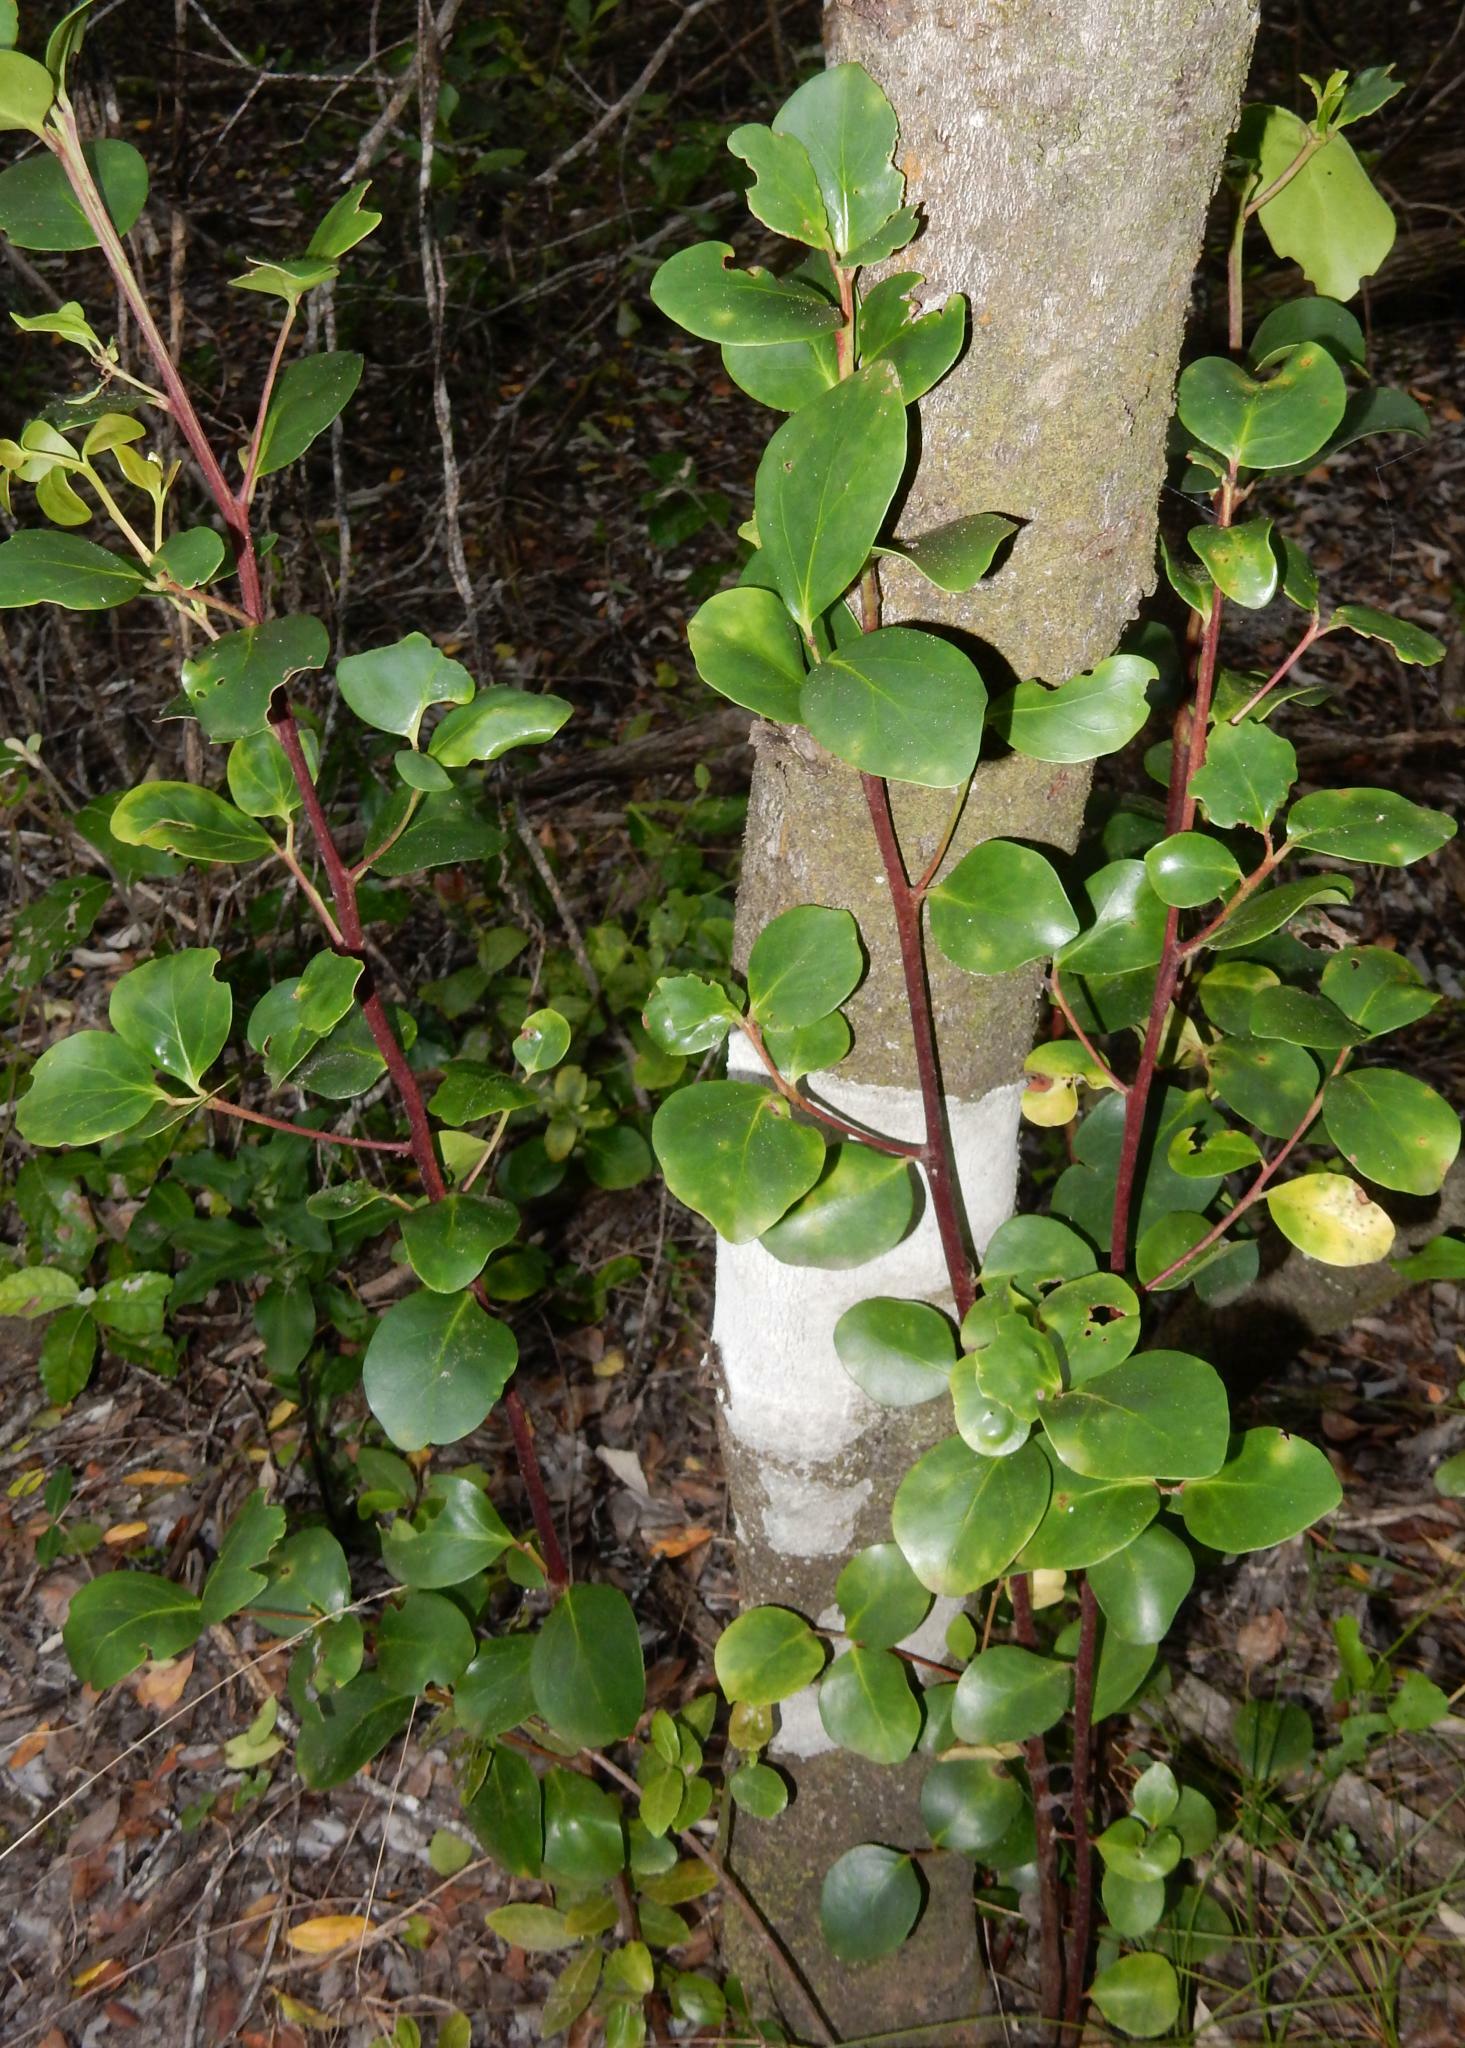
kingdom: Plantae
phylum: Tracheophyta
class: Magnoliopsida
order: Celastrales
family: Celastraceae
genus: Pterocelastrus
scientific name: Pterocelastrus tricuspidatus
